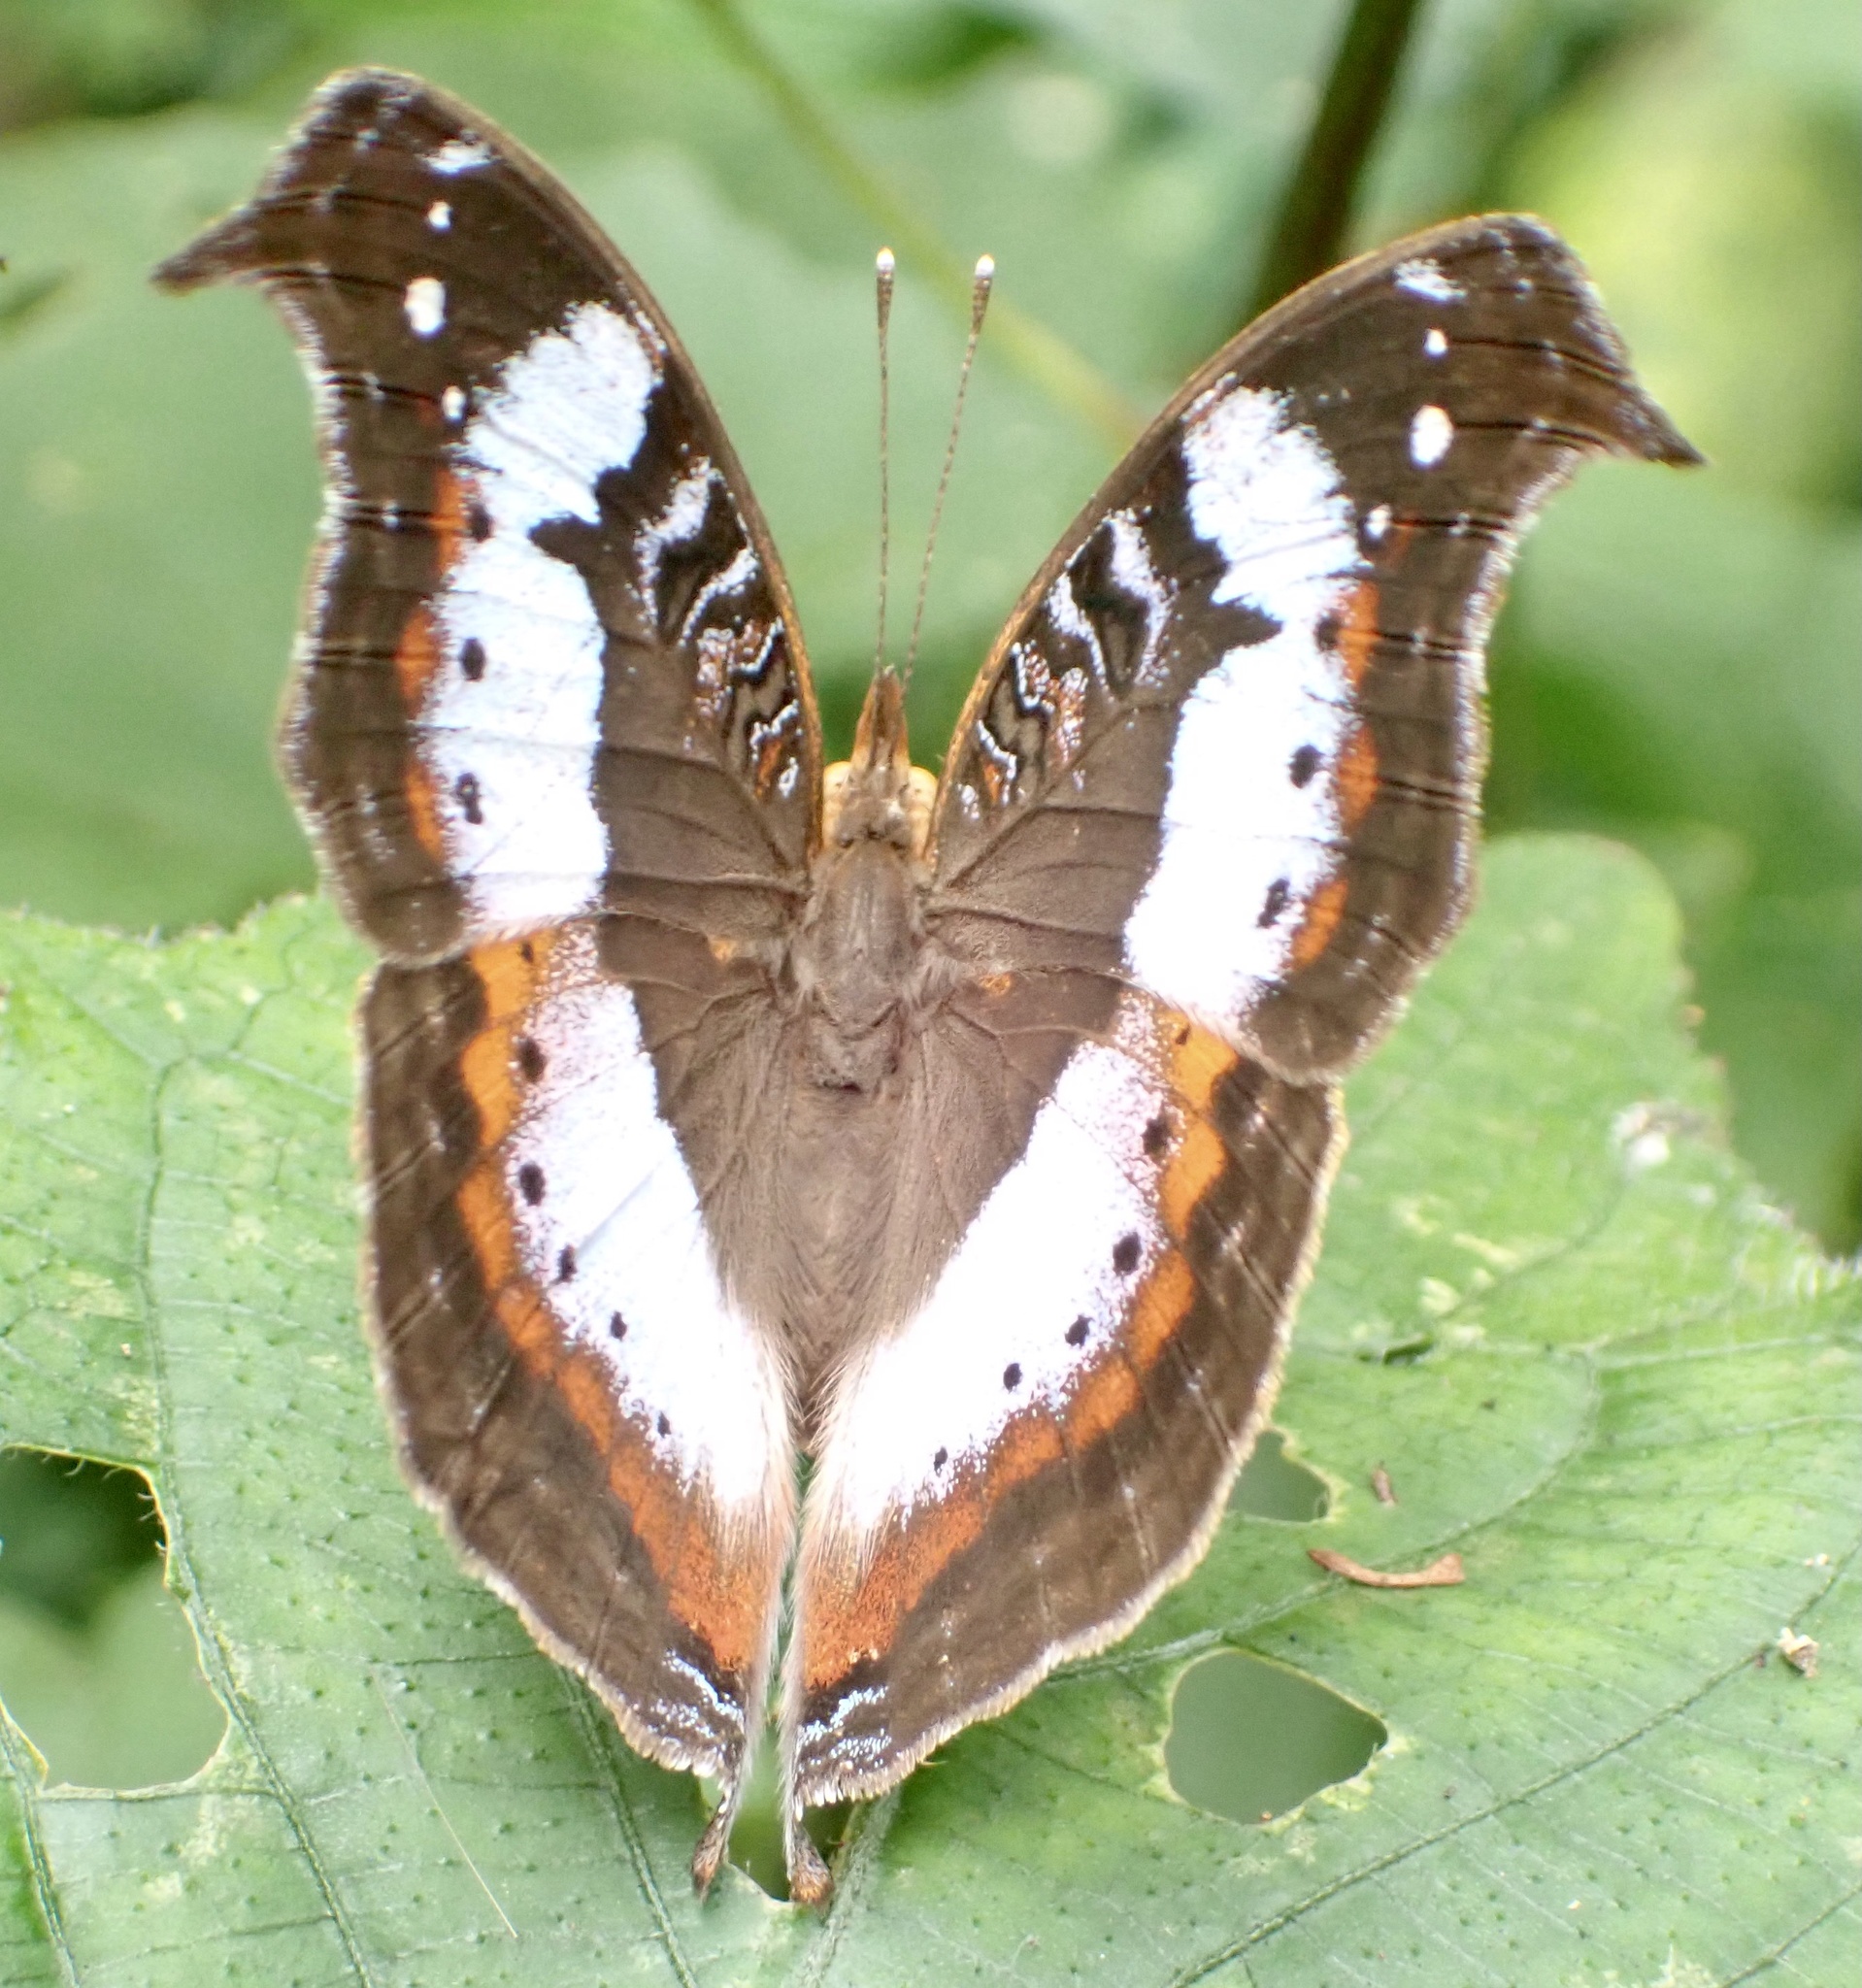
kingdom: Animalia
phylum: Arthropoda
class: Insecta
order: Lepidoptera
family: Nymphalidae
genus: Precis
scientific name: Precis pelarga
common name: Fashion commodore
